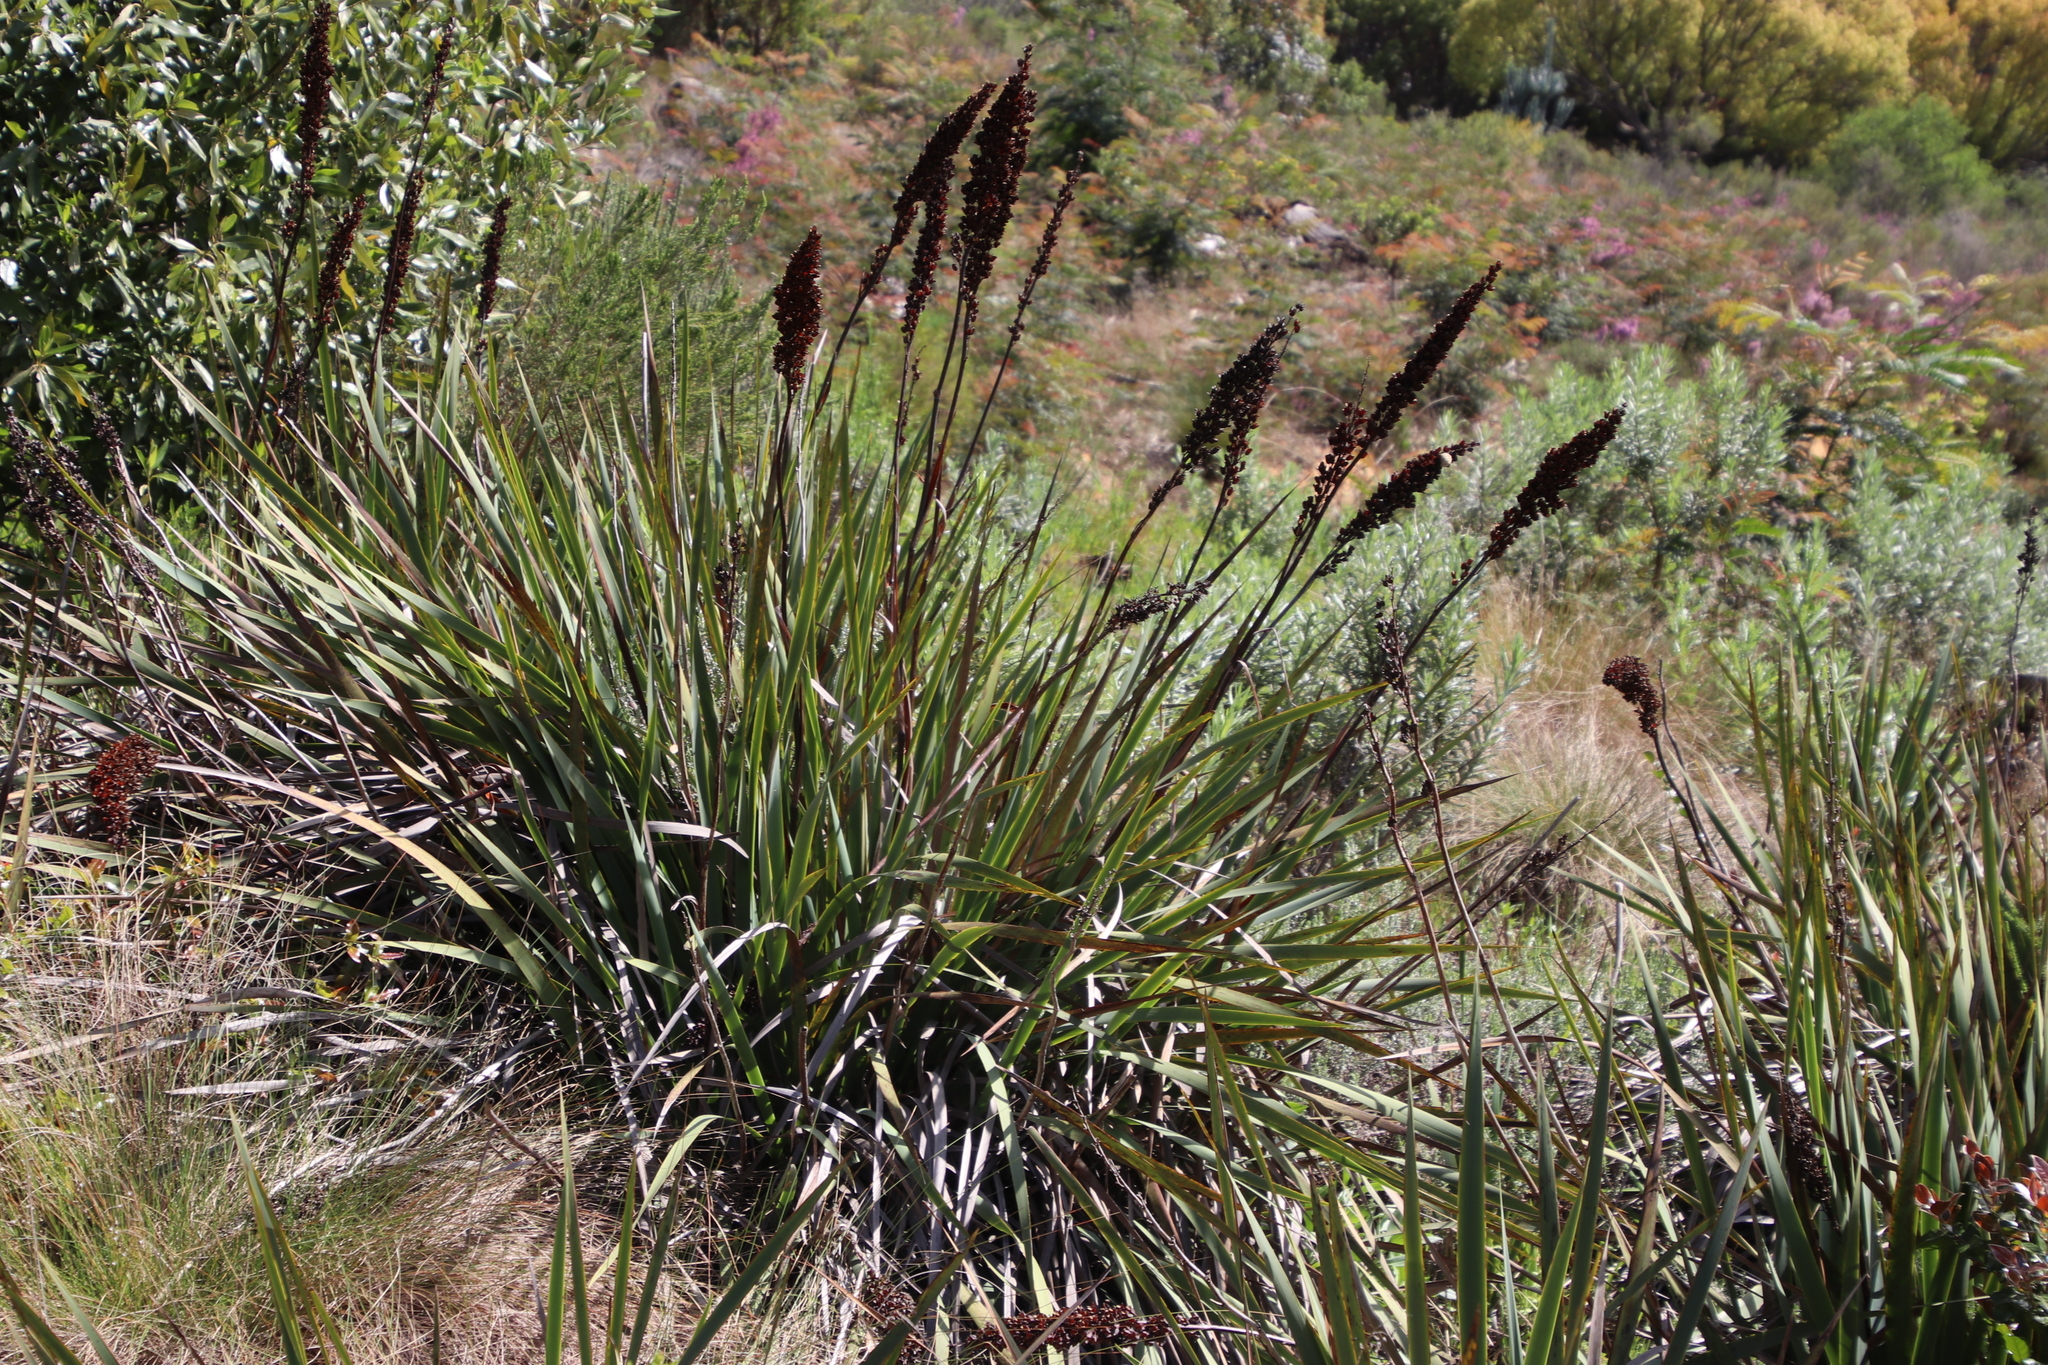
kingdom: Plantae
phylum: Tracheophyta
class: Liliopsida
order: Asparagales
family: Iridaceae
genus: Aristea
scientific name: Aristea capitata
